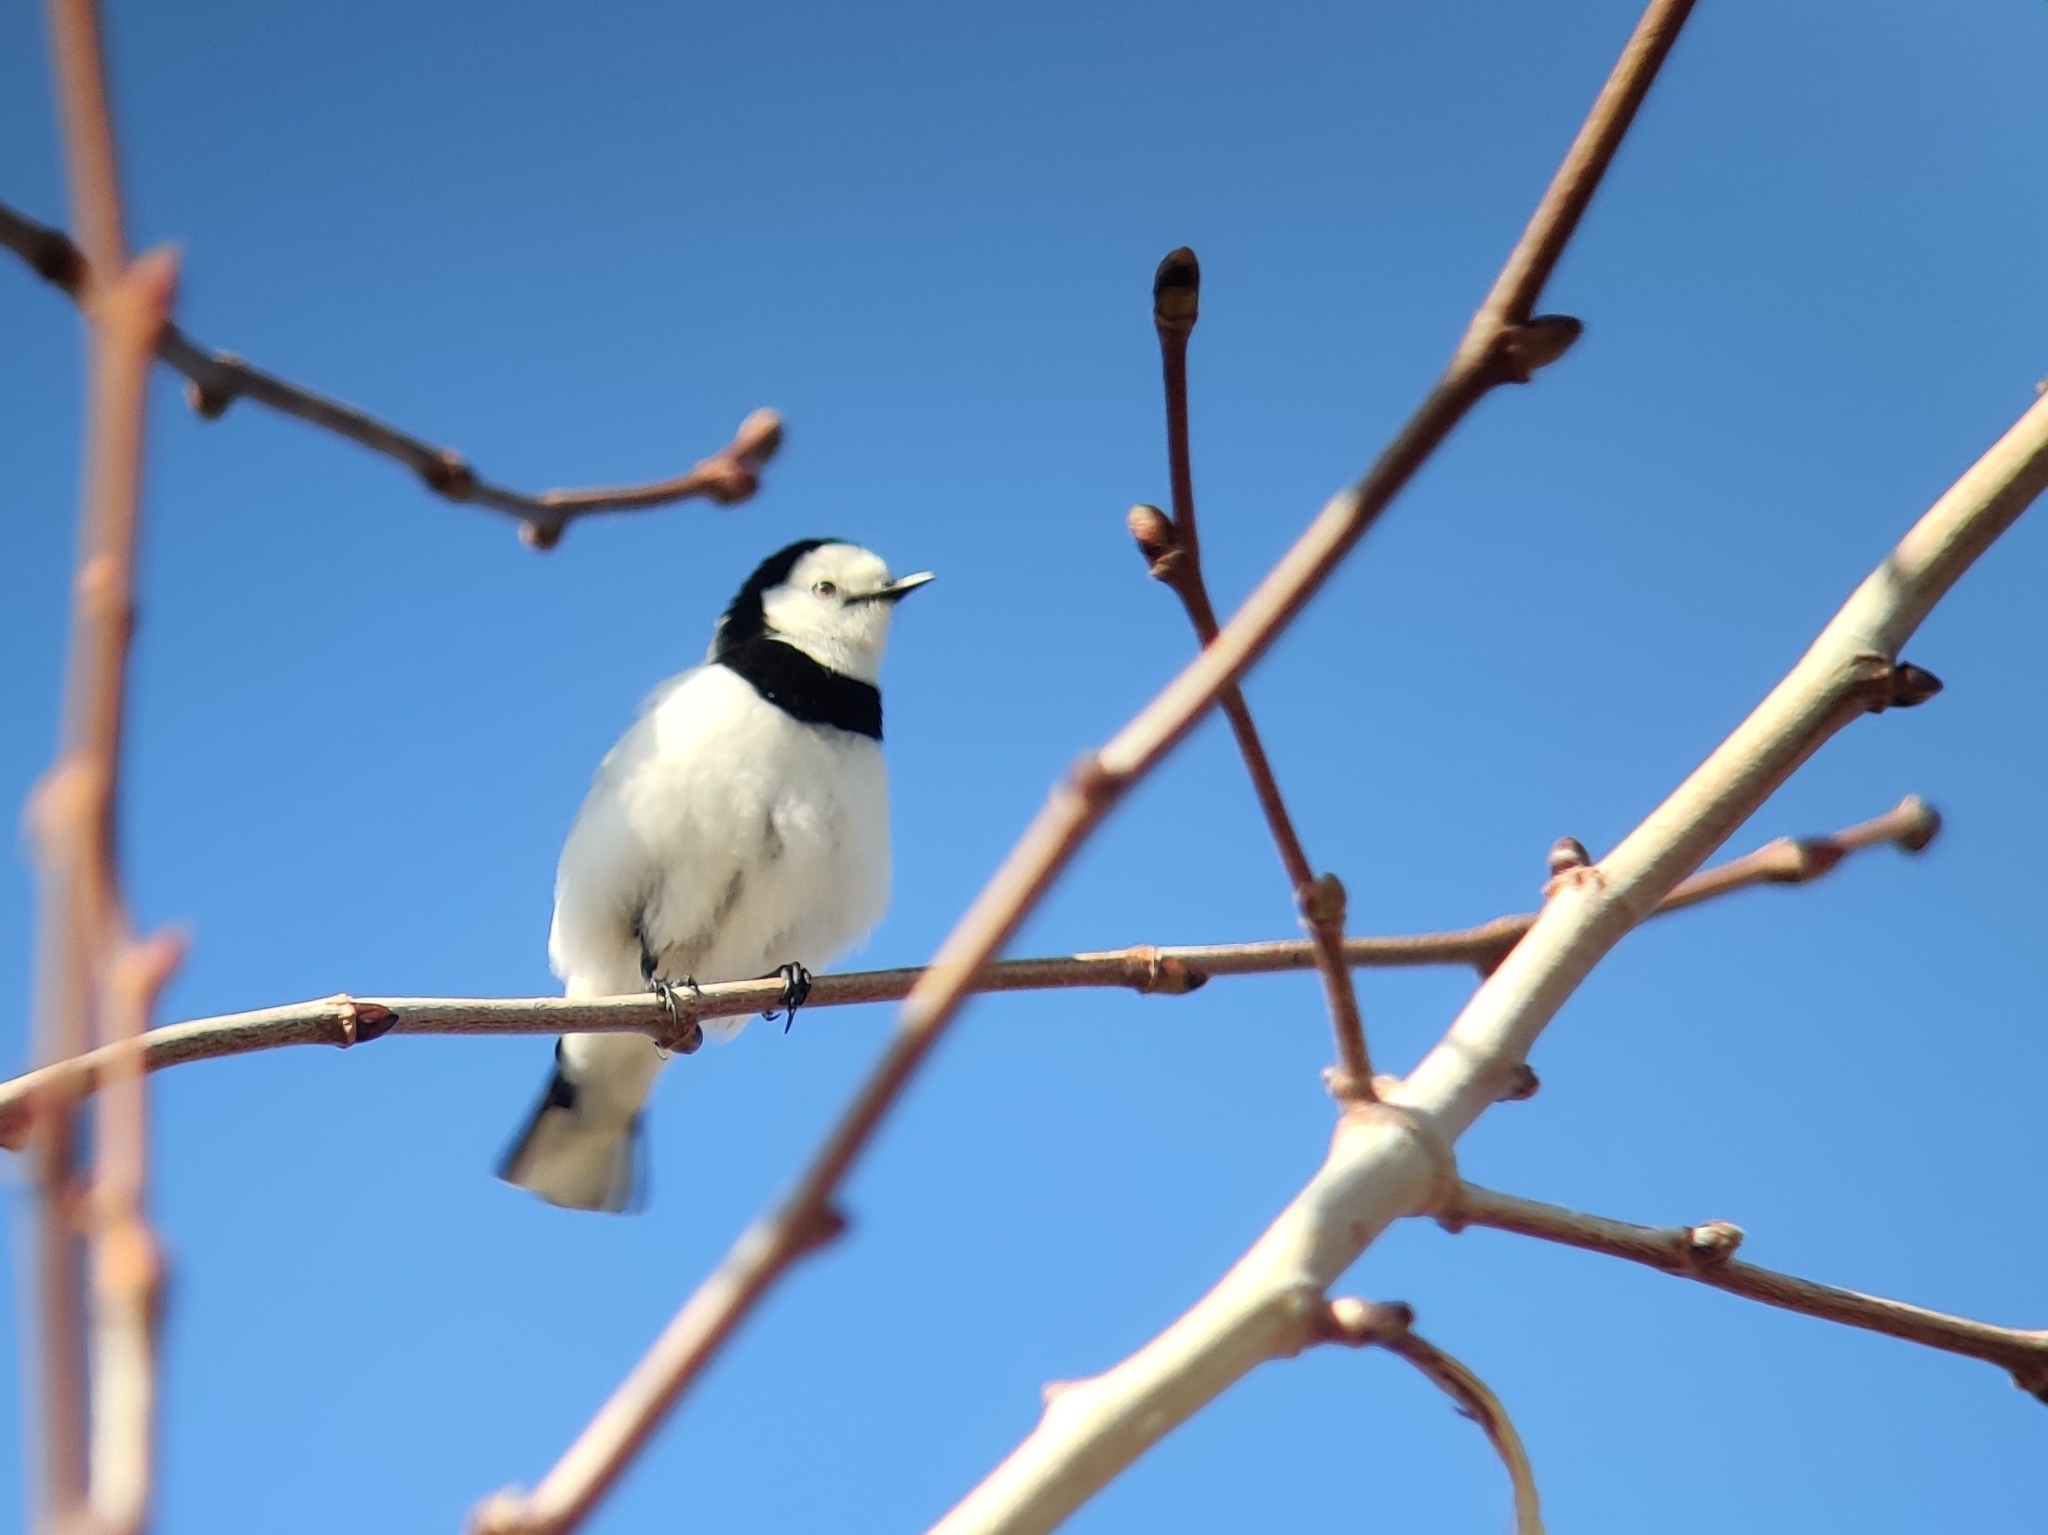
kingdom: Animalia
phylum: Chordata
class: Aves
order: Passeriformes
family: Meliphagidae
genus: Epthianura
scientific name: Epthianura albifrons
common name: White-fronted chat
